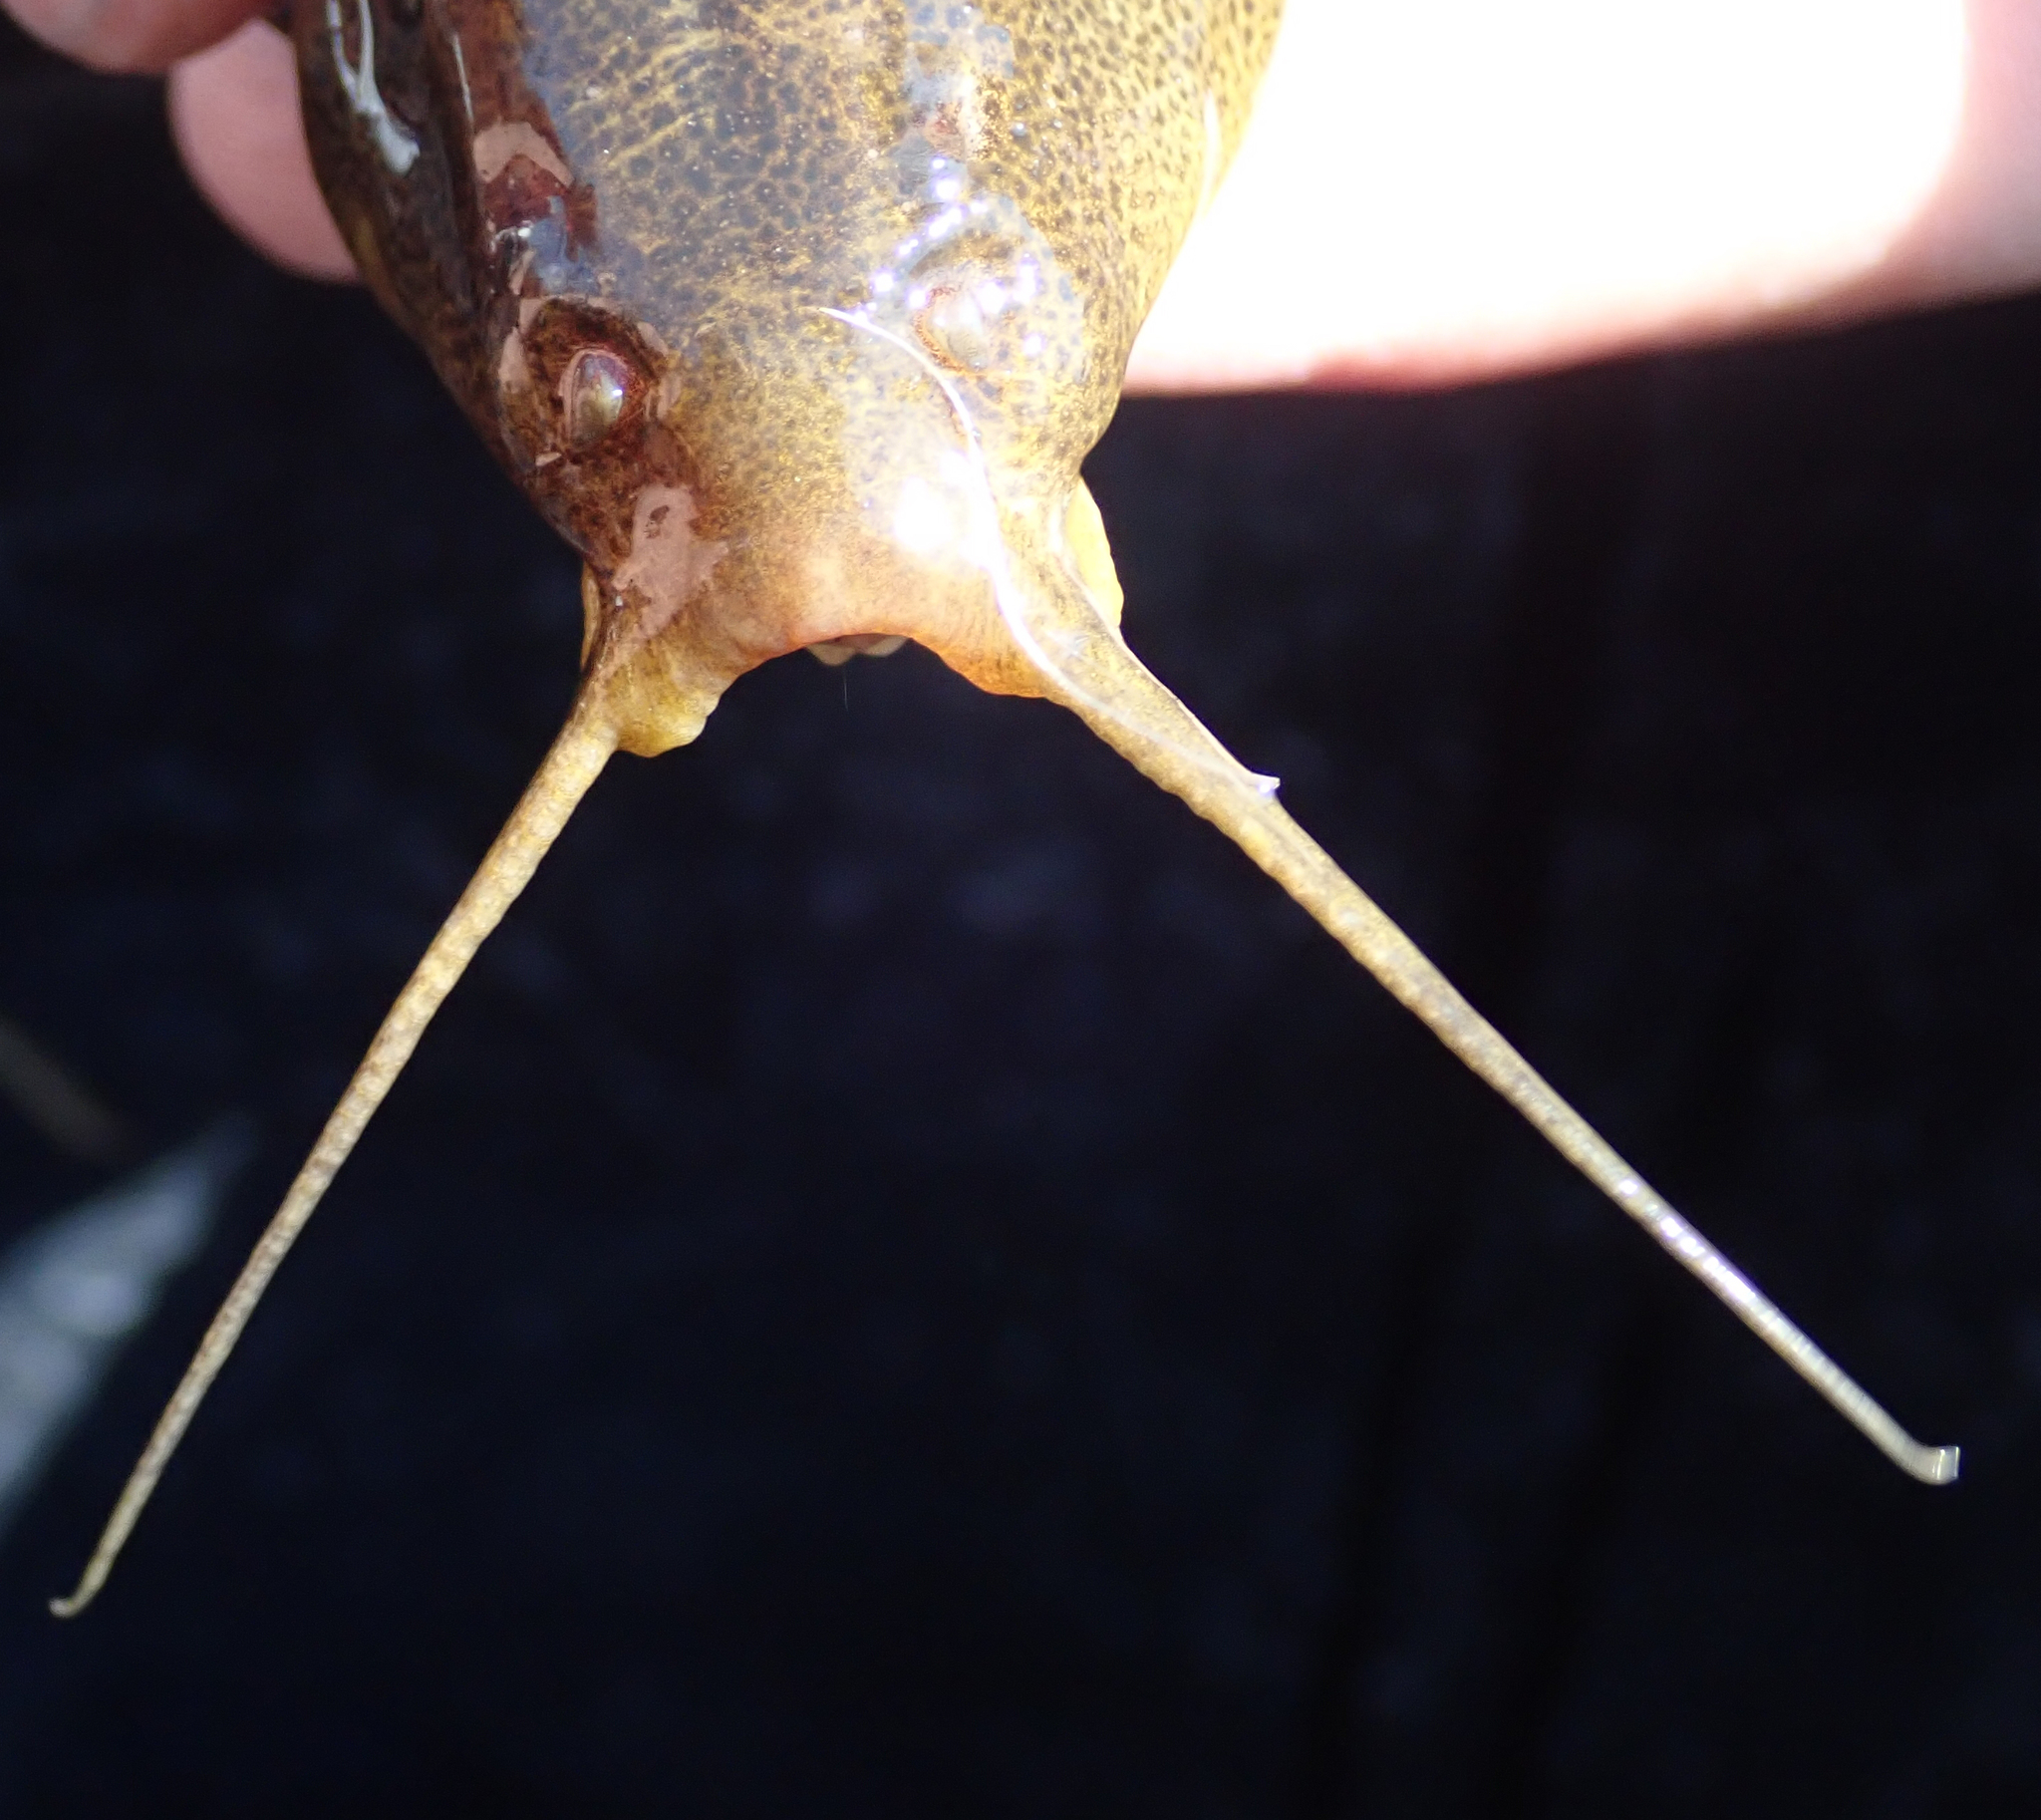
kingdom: Animalia
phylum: Chordata
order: Siluriformes
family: Mochokidae
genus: Synodontis
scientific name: Synodontis vanderwaali
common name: Finetooth squeaker
